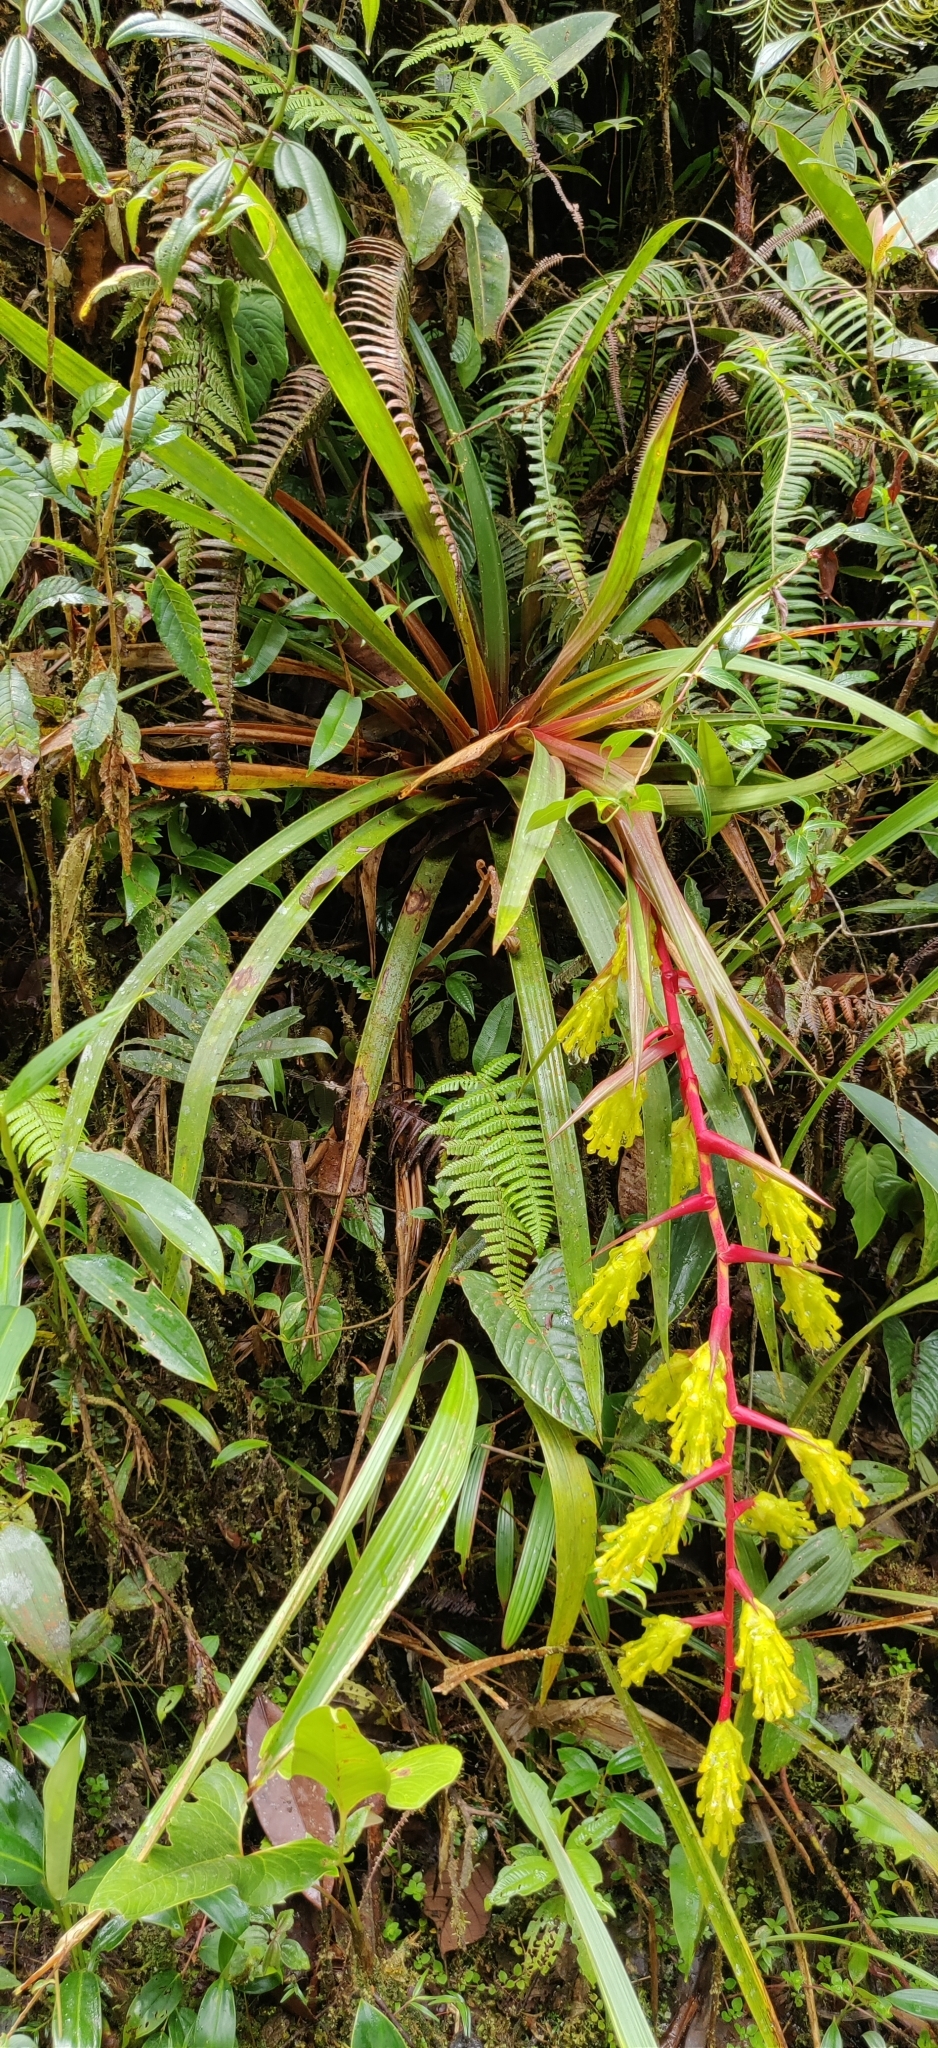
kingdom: Plantae
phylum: Tracheophyta
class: Liliopsida
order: Poales
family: Bromeliaceae
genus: Guzmania
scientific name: Guzmania rugosa
